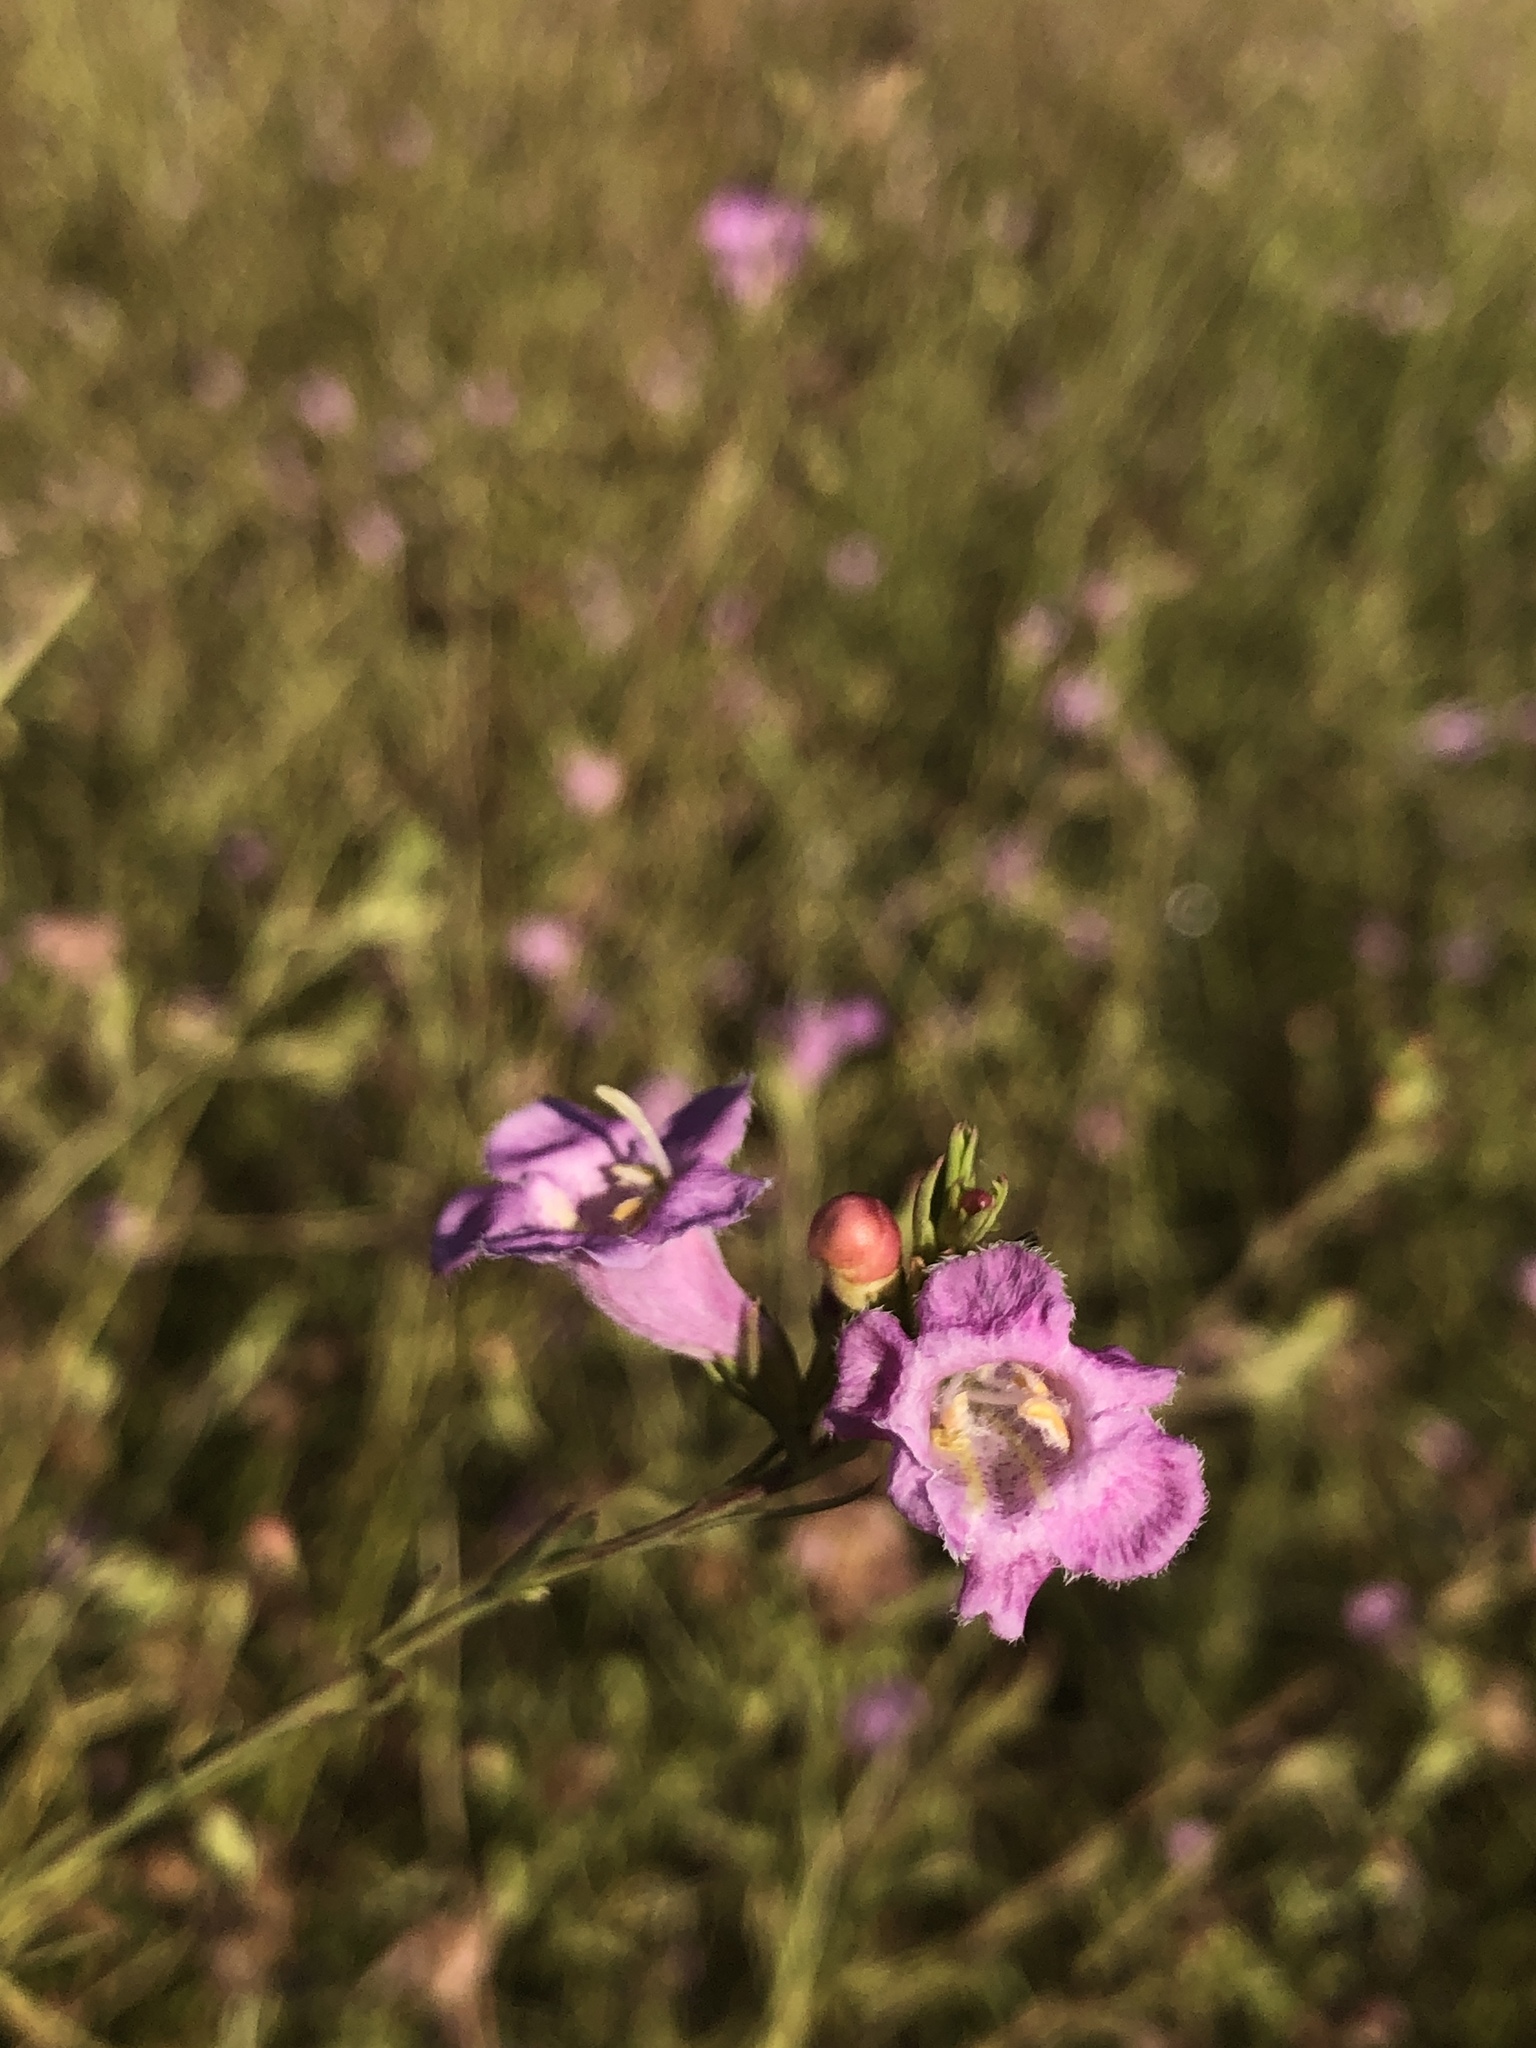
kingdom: Plantae
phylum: Tracheophyta
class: Magnoliopsida
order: Lamiales
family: Orobanchaceae
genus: Agalinis
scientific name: Agalinis heterophylla
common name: Prairie agalinis
